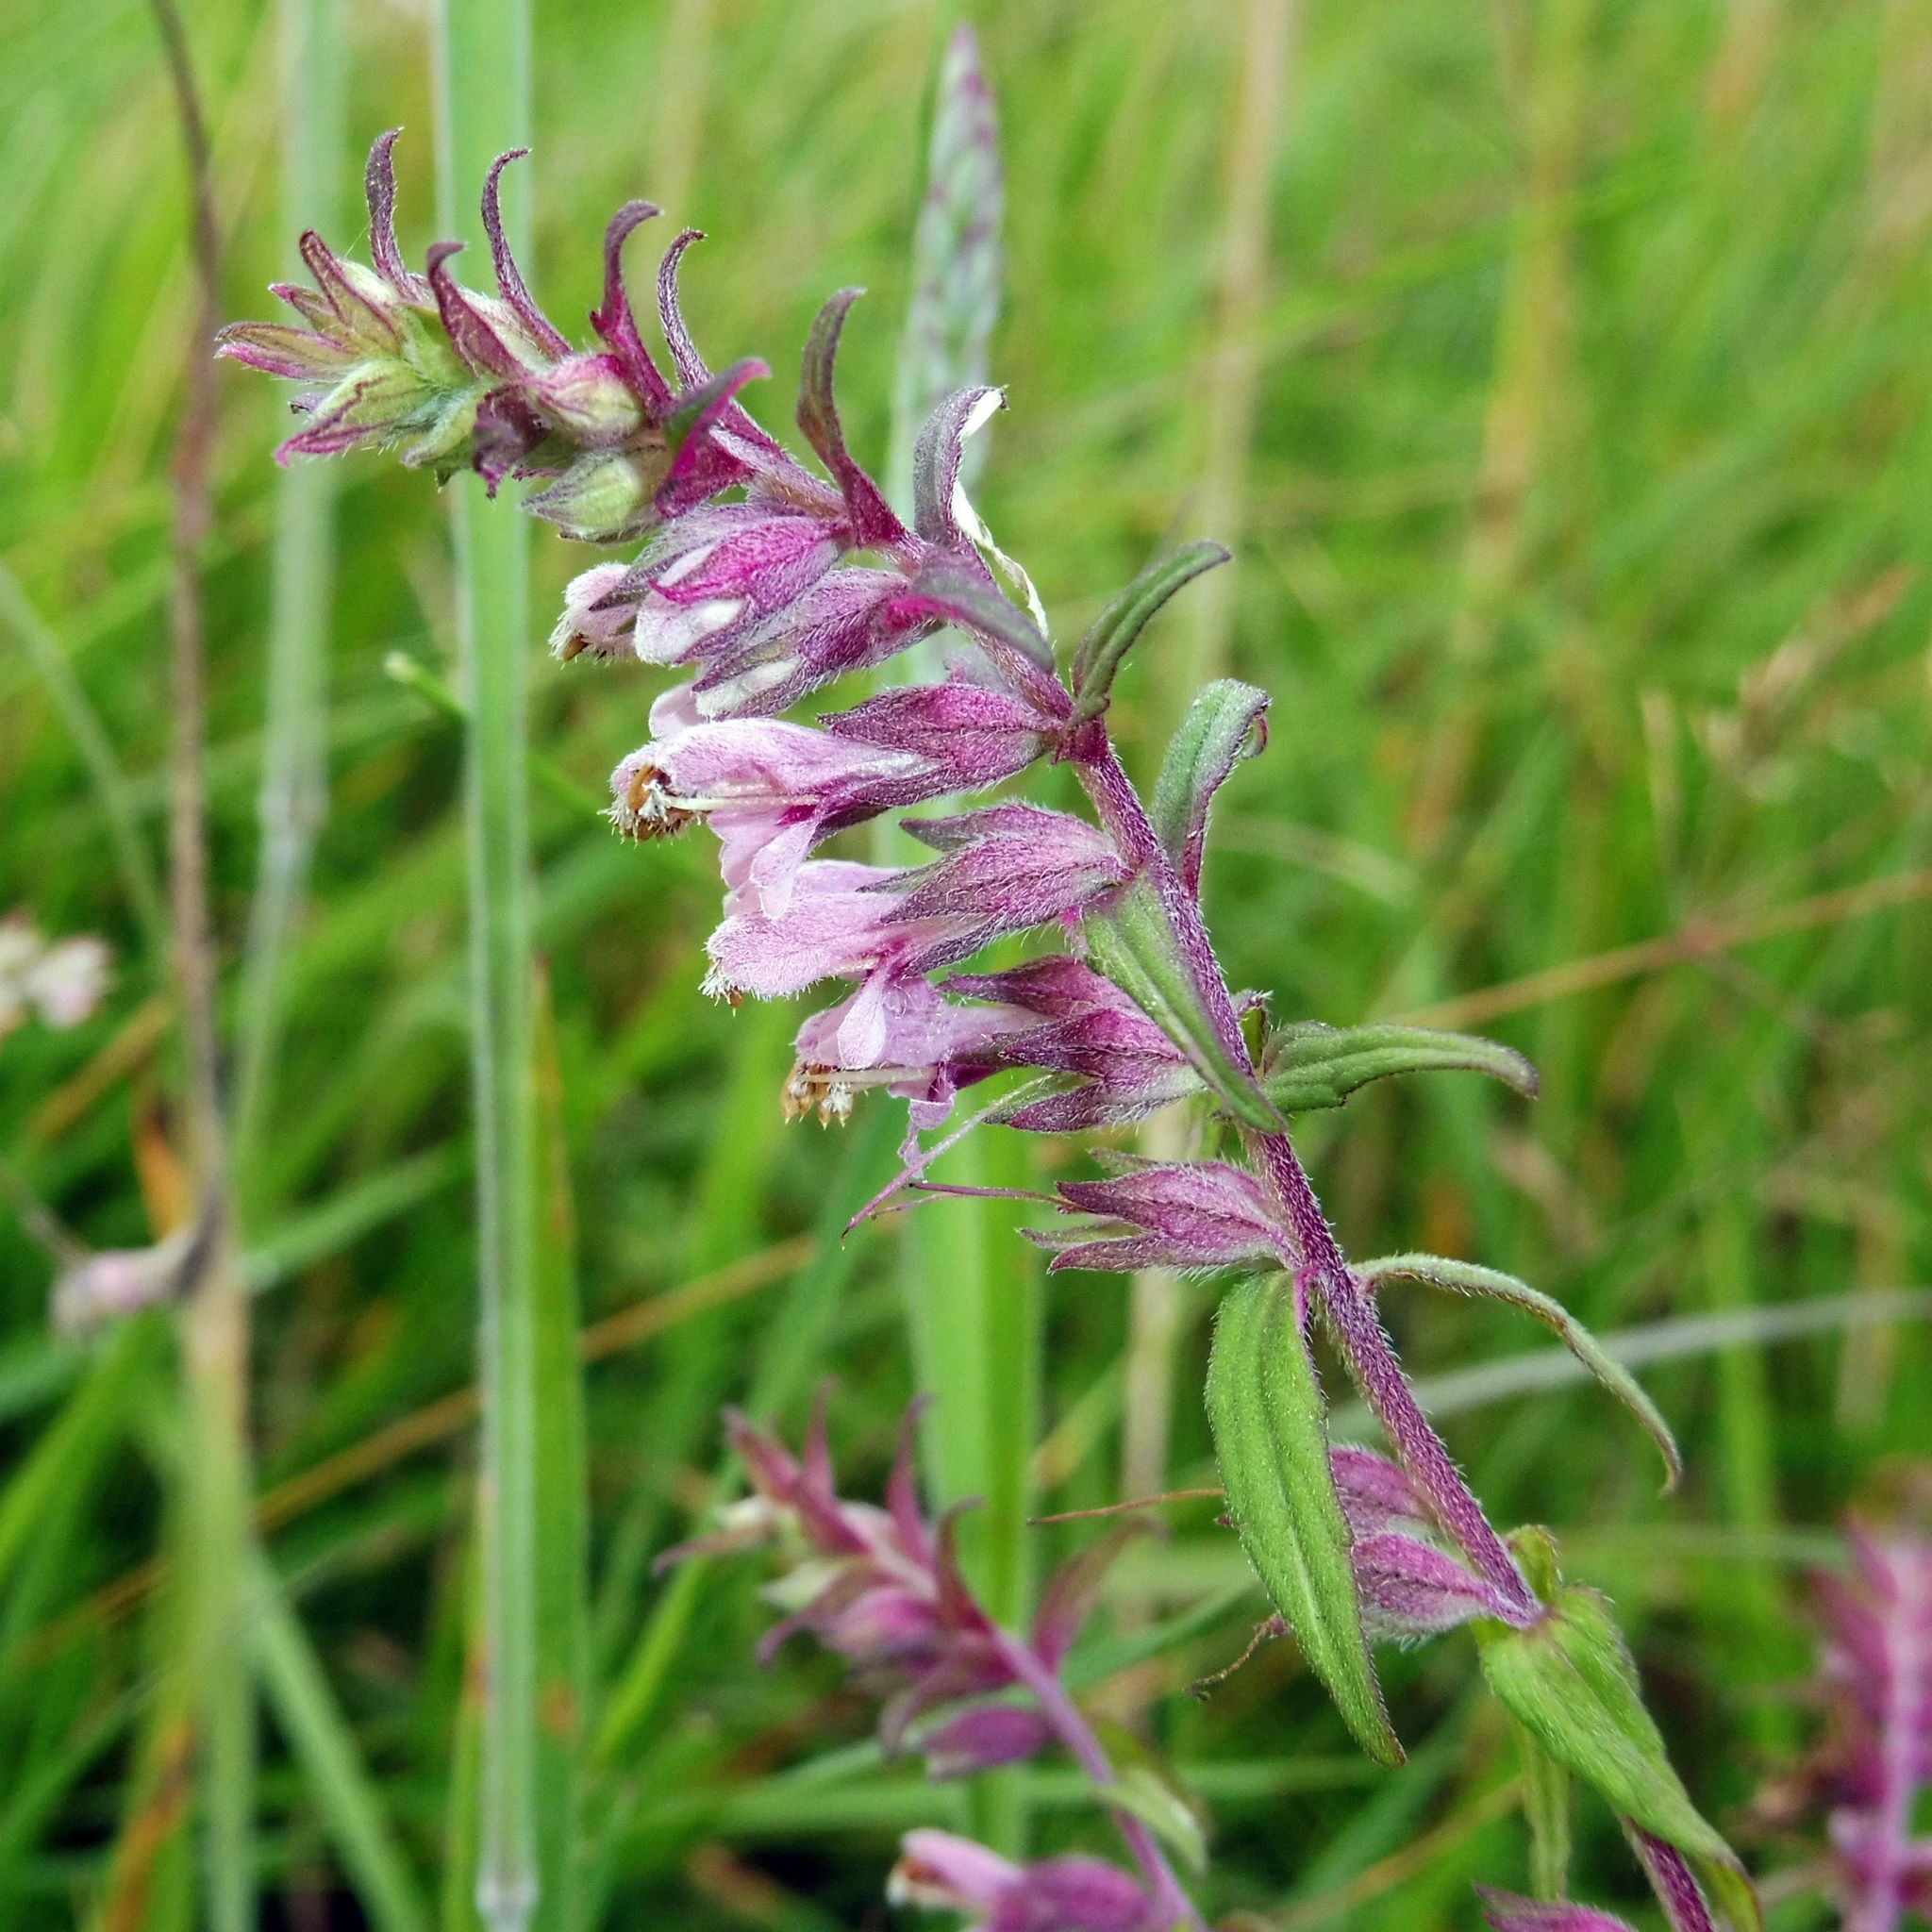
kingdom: Plantae
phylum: Tracheophyta
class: Magnoliopsida
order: Lamiales
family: Orobanchaceae
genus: Odontites
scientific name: Odontites vulgaris
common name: Broomrape
